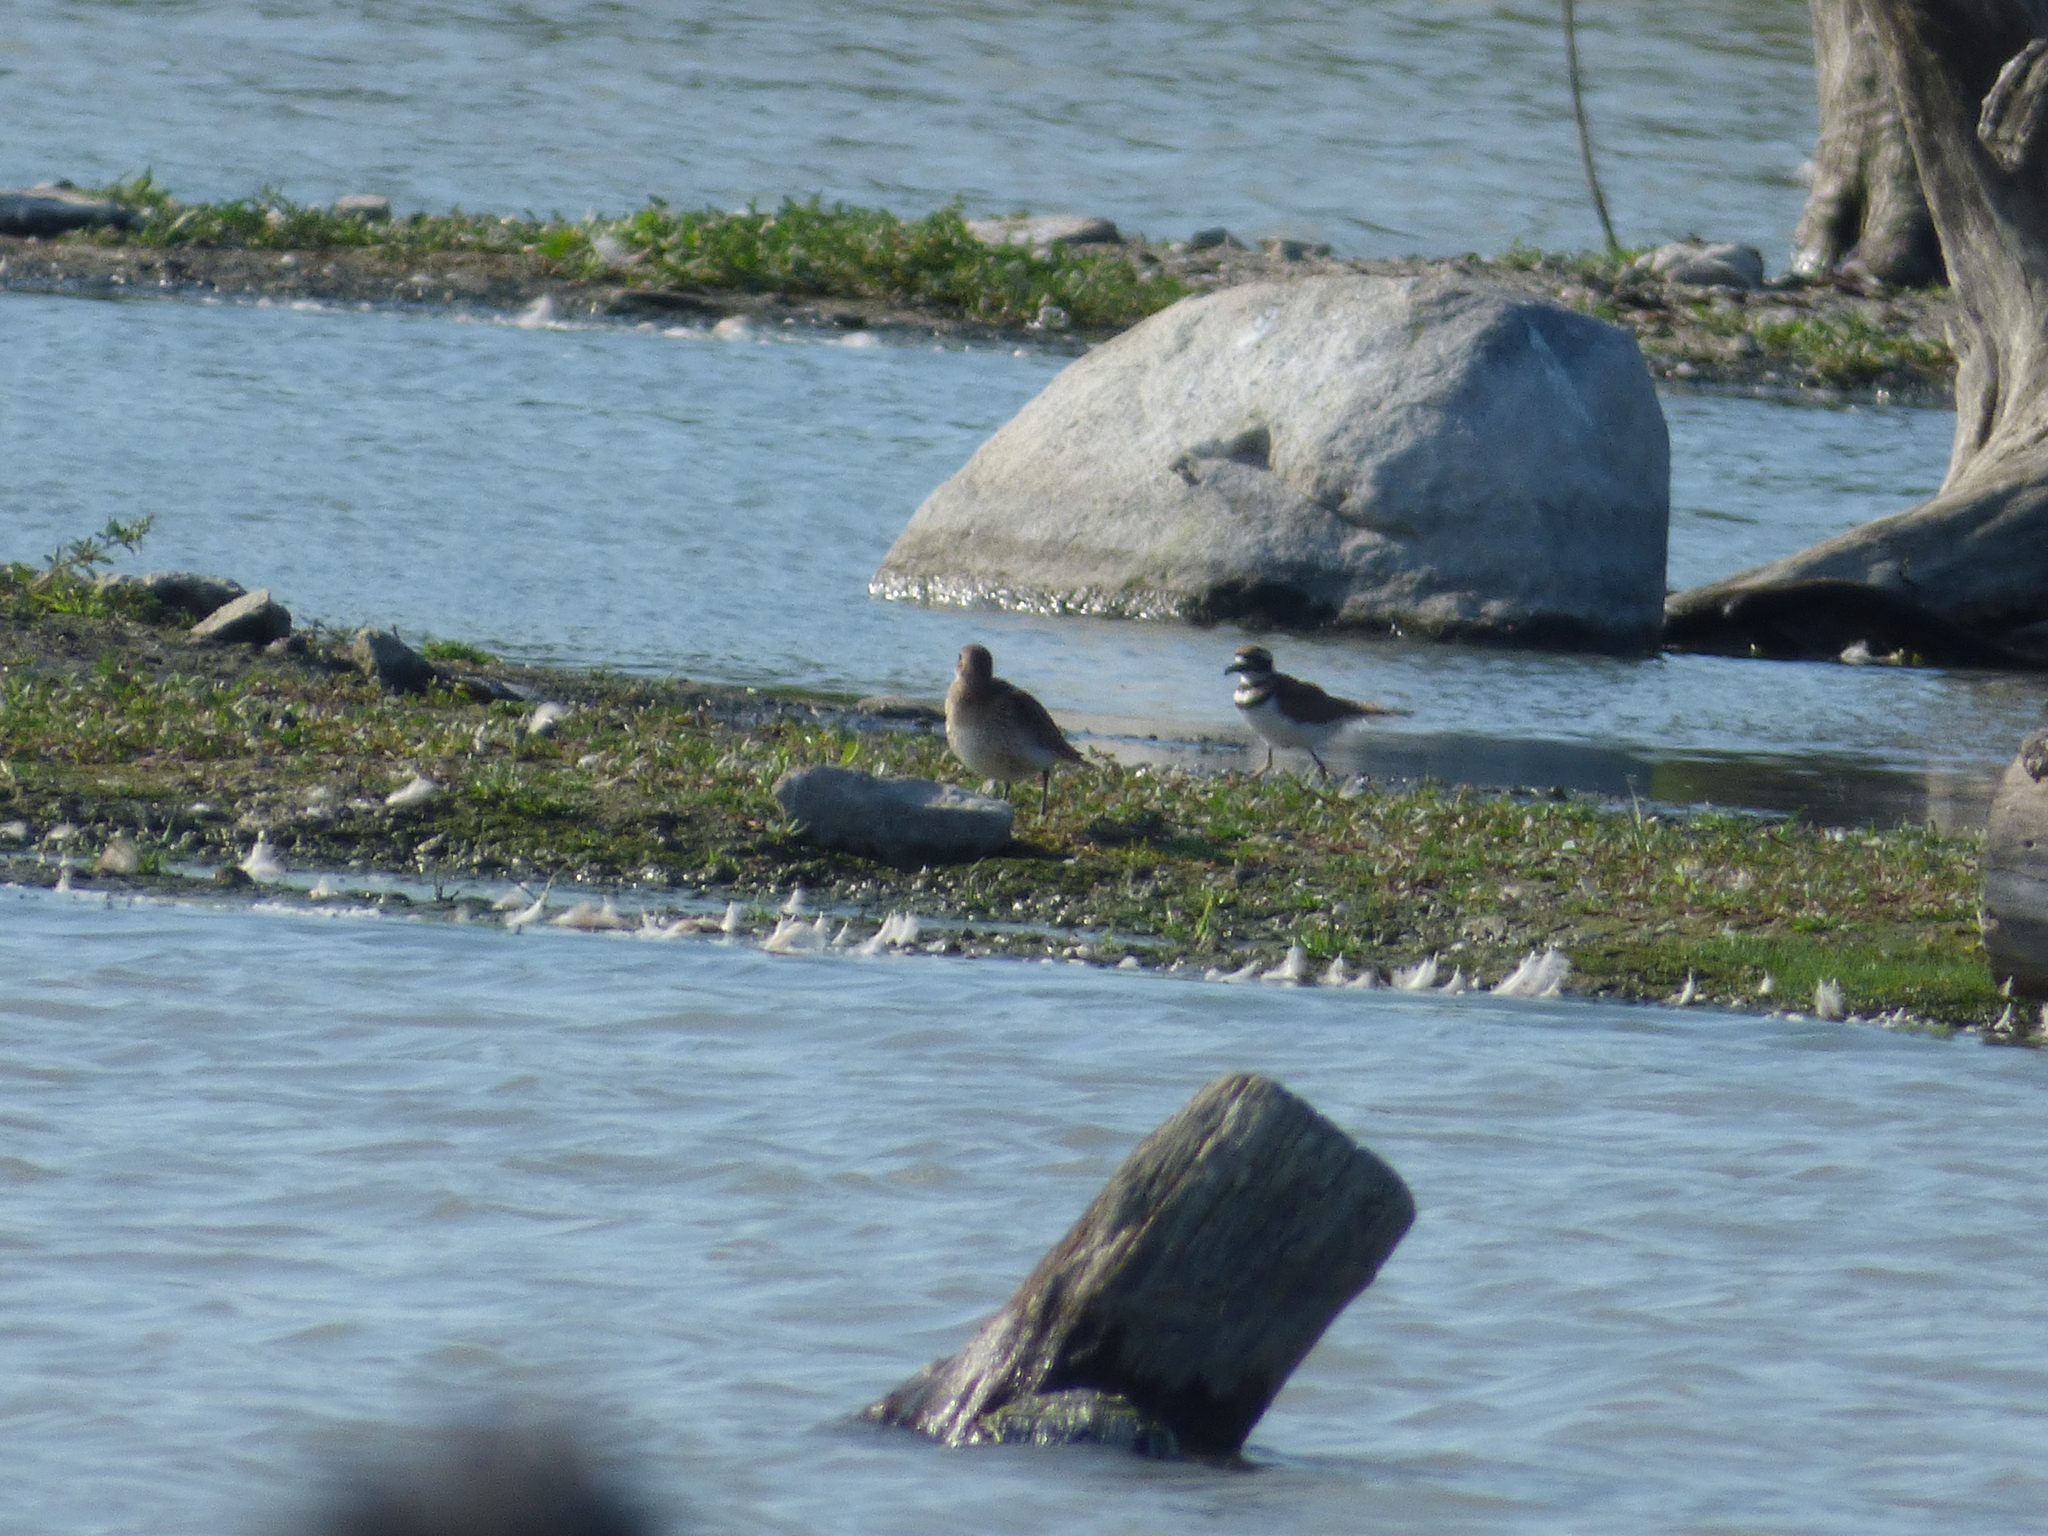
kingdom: Animalia
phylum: Chordata
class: Aves
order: Charadriiformes
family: Charadriidae
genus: Charadrius
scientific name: Charadrius vociferus
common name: Killdeer
